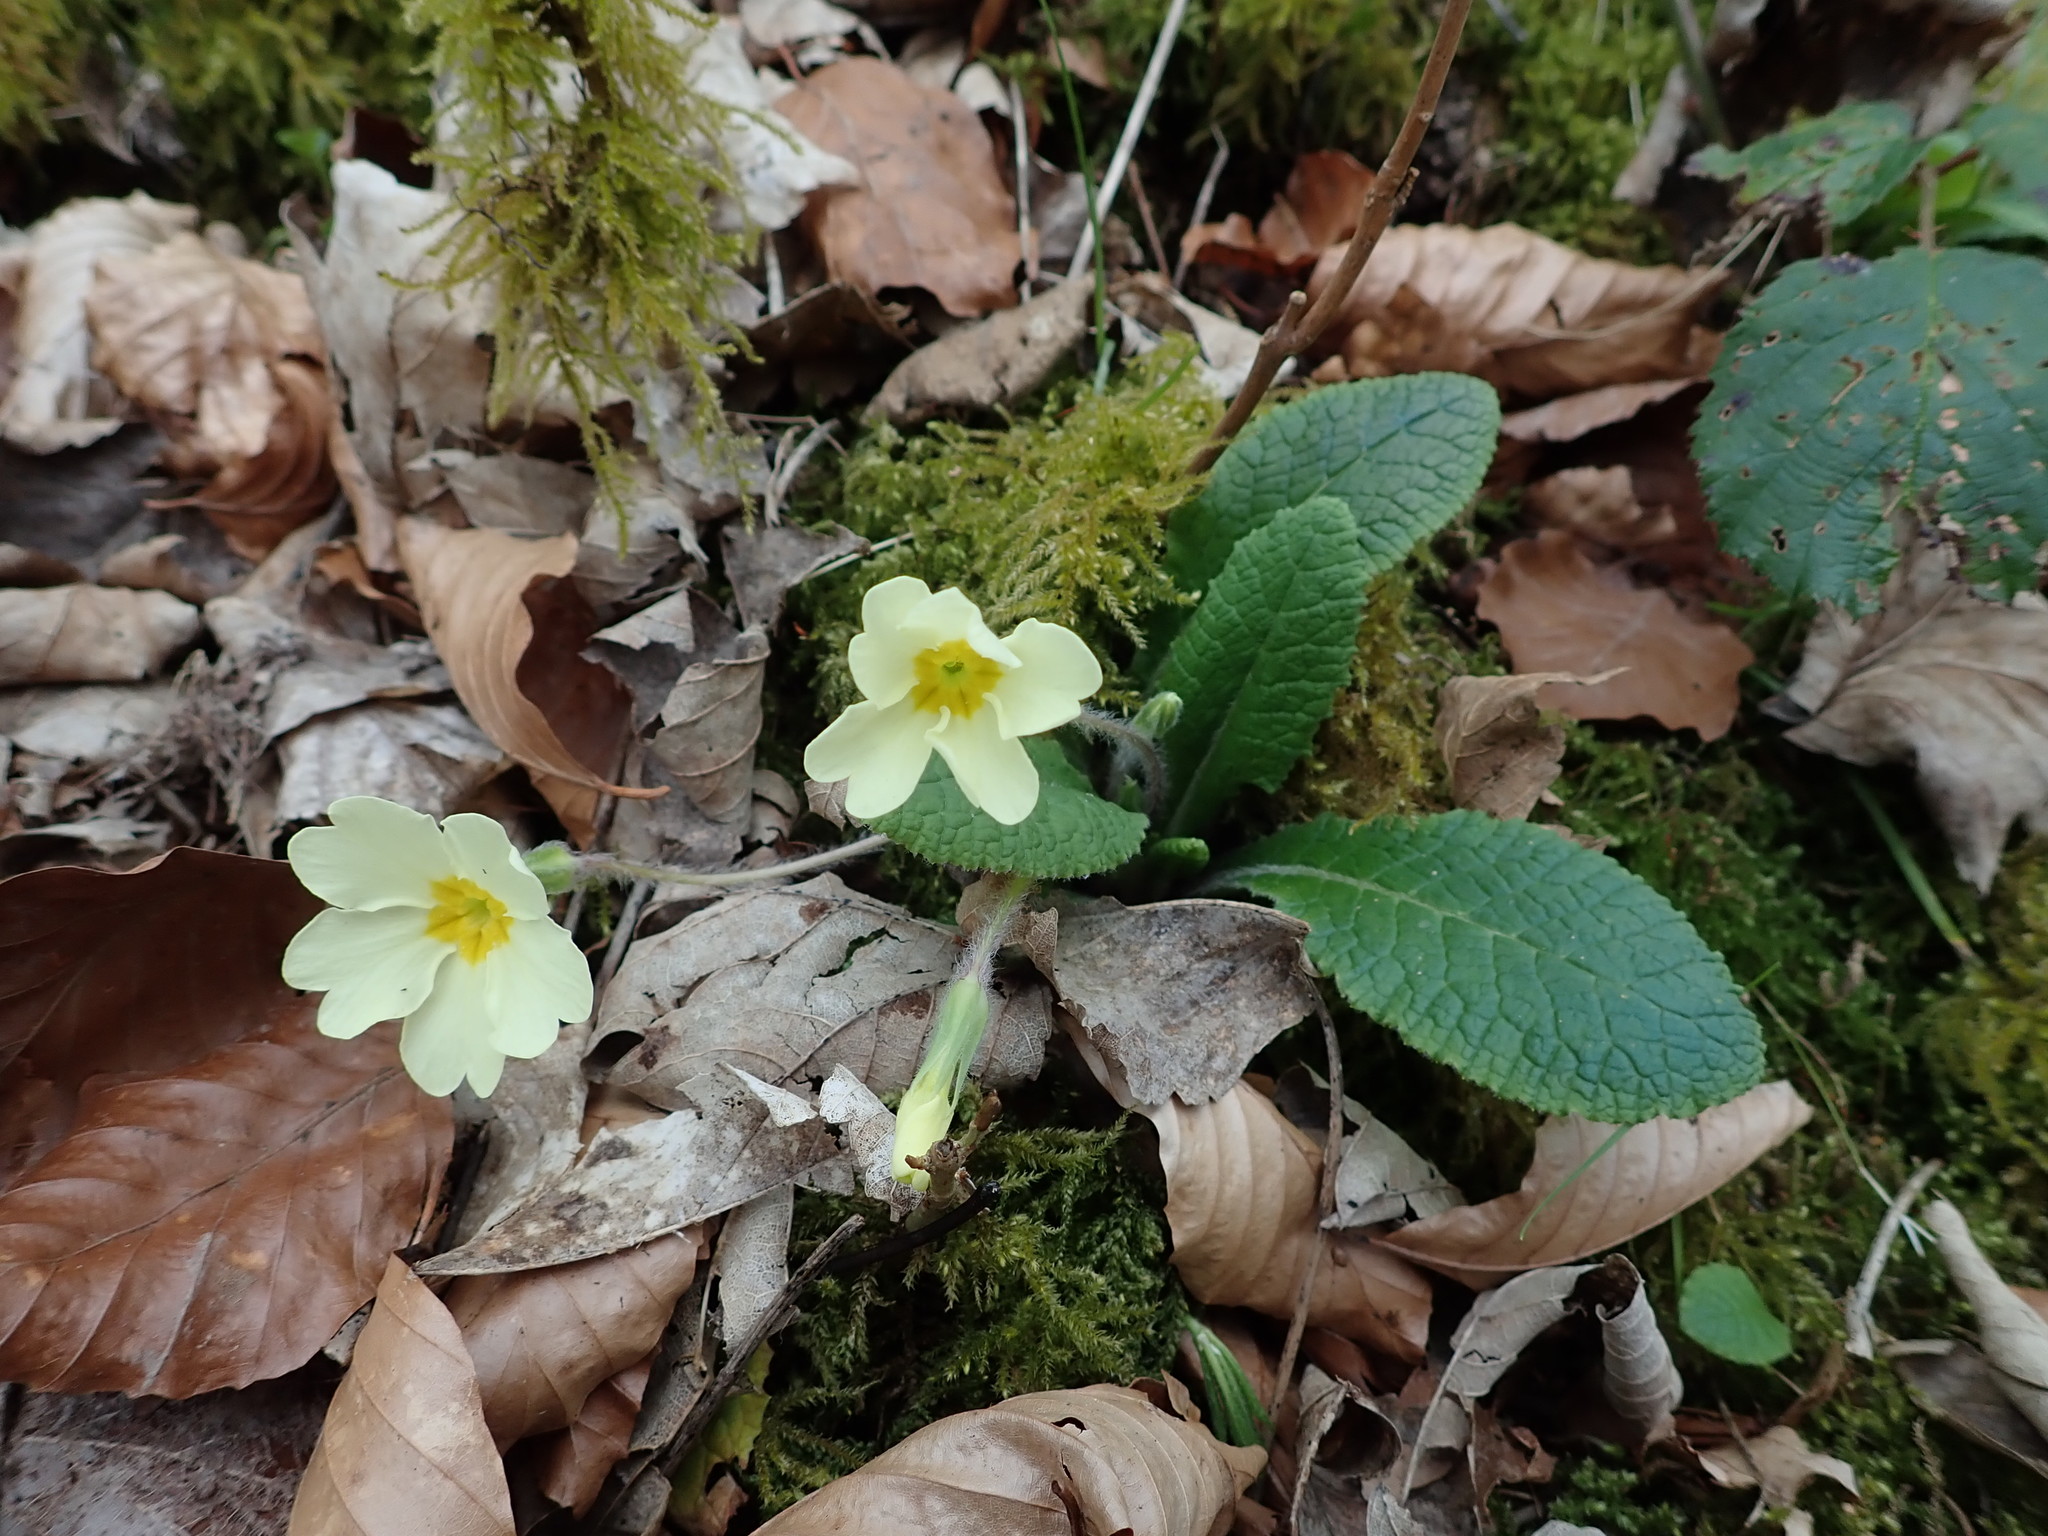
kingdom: Plantae
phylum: Tracheophyta
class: Magnoliopsida
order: Ericales
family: Primulaceae
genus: Primula
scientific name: Primula vulgaris
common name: Primrose
